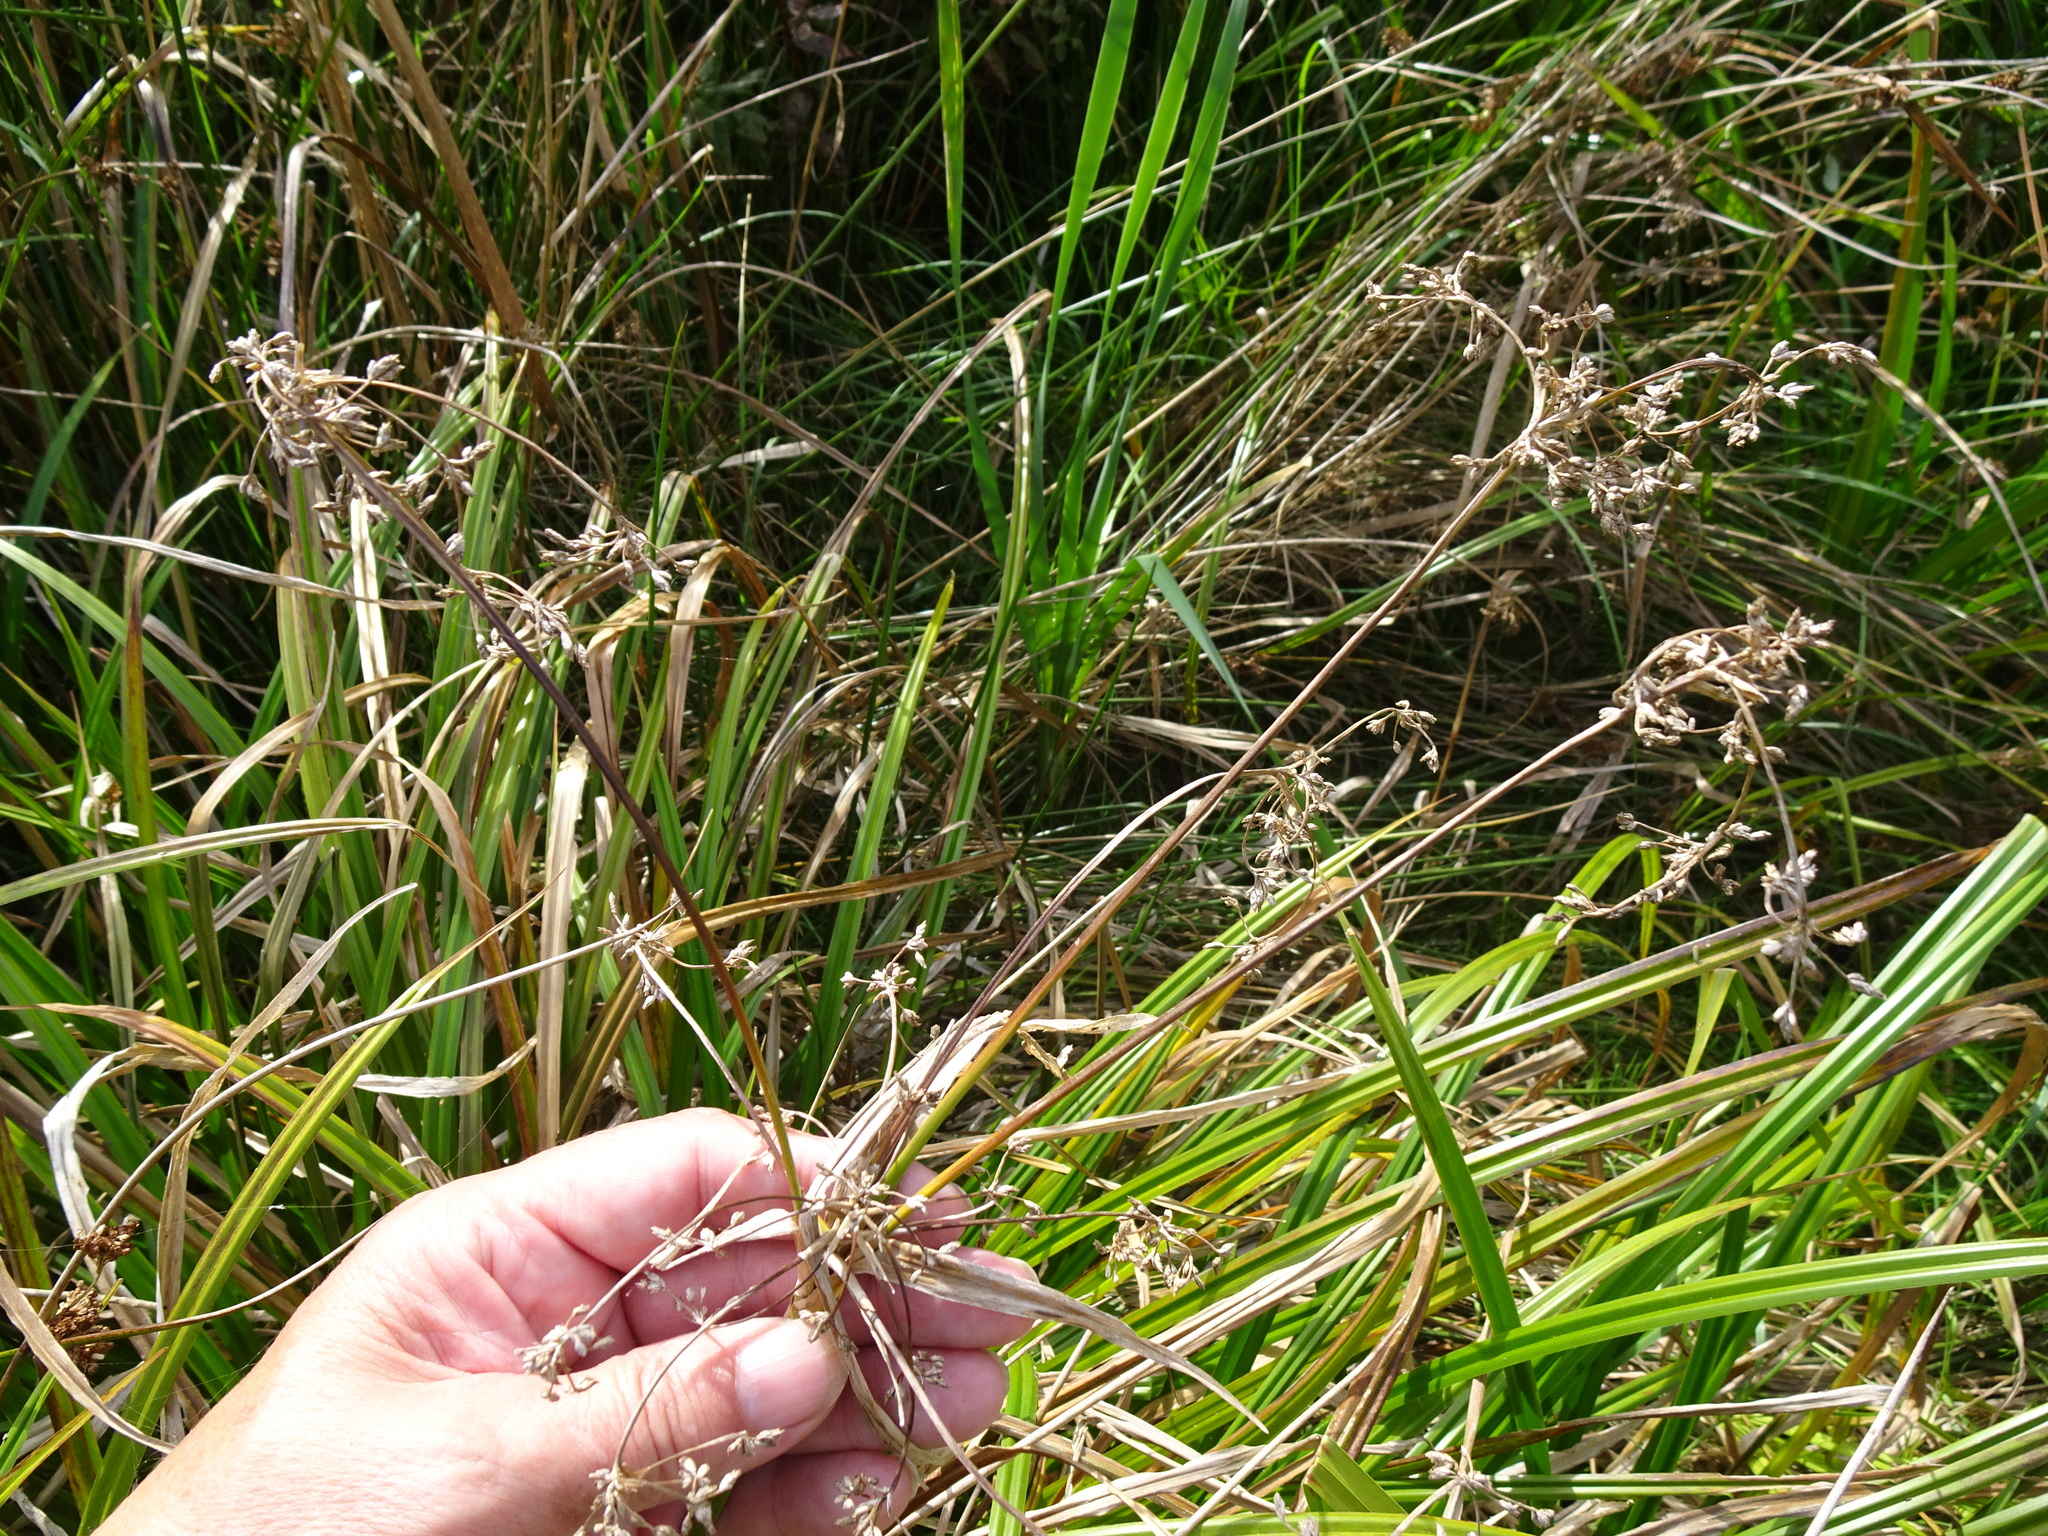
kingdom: Plantae
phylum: Tracheophyta
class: Liliopsida
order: Poales
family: Cyperaceae
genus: Scirpus
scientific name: Scirpus sylvaticus
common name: Wood club-rush
